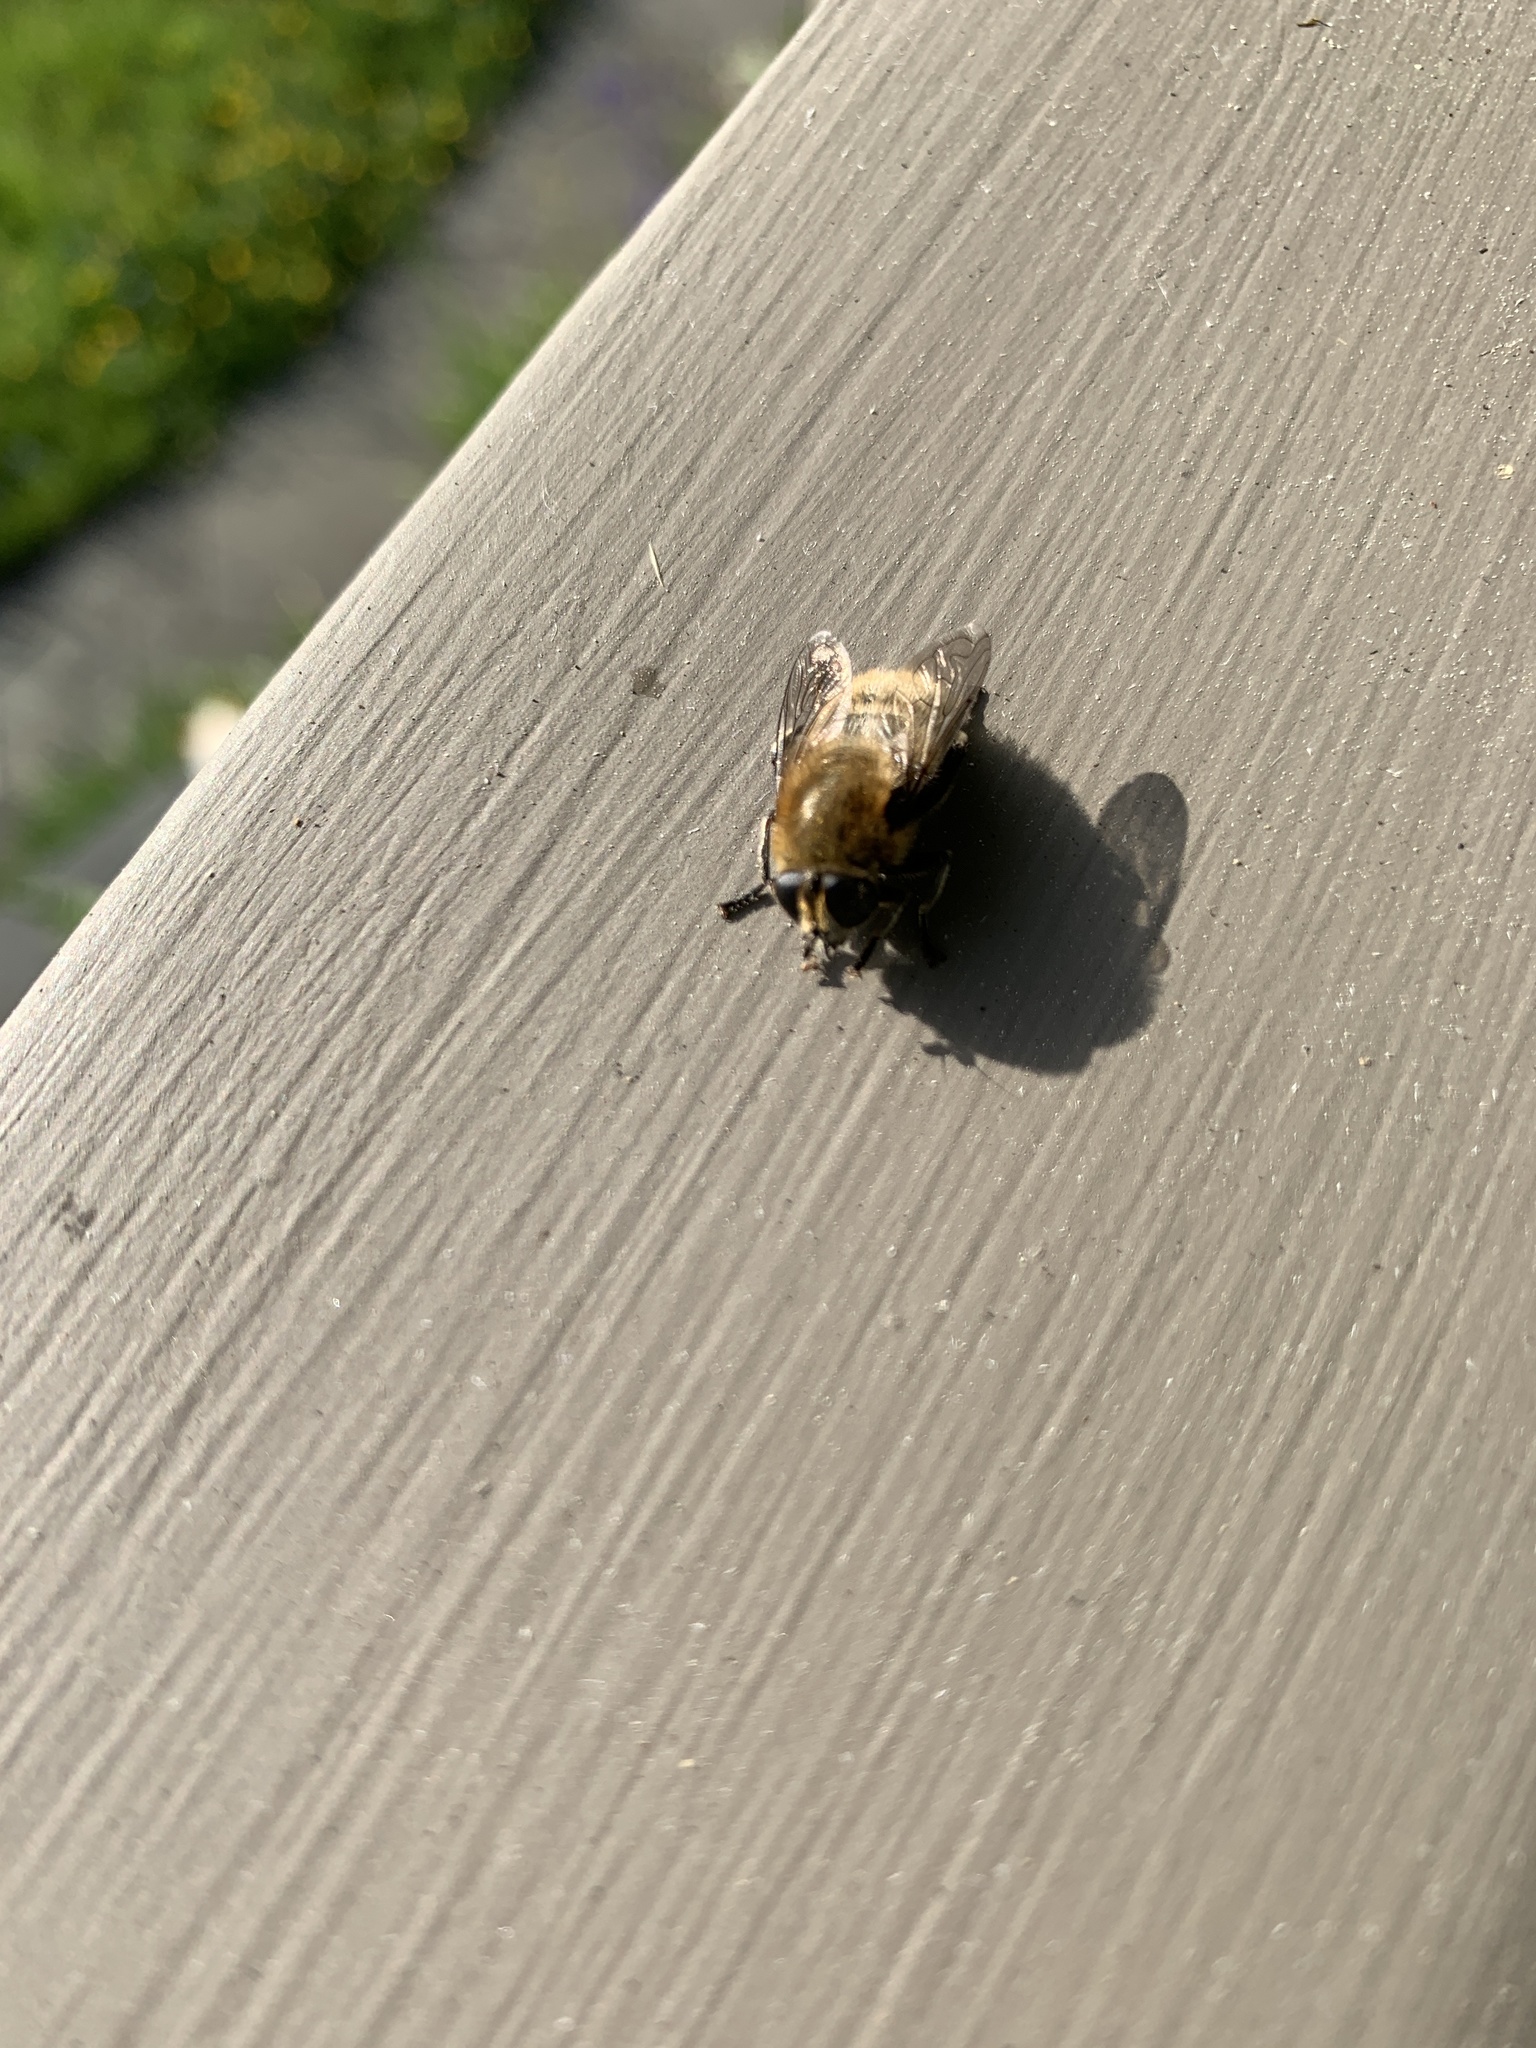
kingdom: Animalia
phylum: Arthropoda
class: Insecta
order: Diptera
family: Syrphidae
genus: Merodon
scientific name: Merodon equestris
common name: Greater bulb-fly
